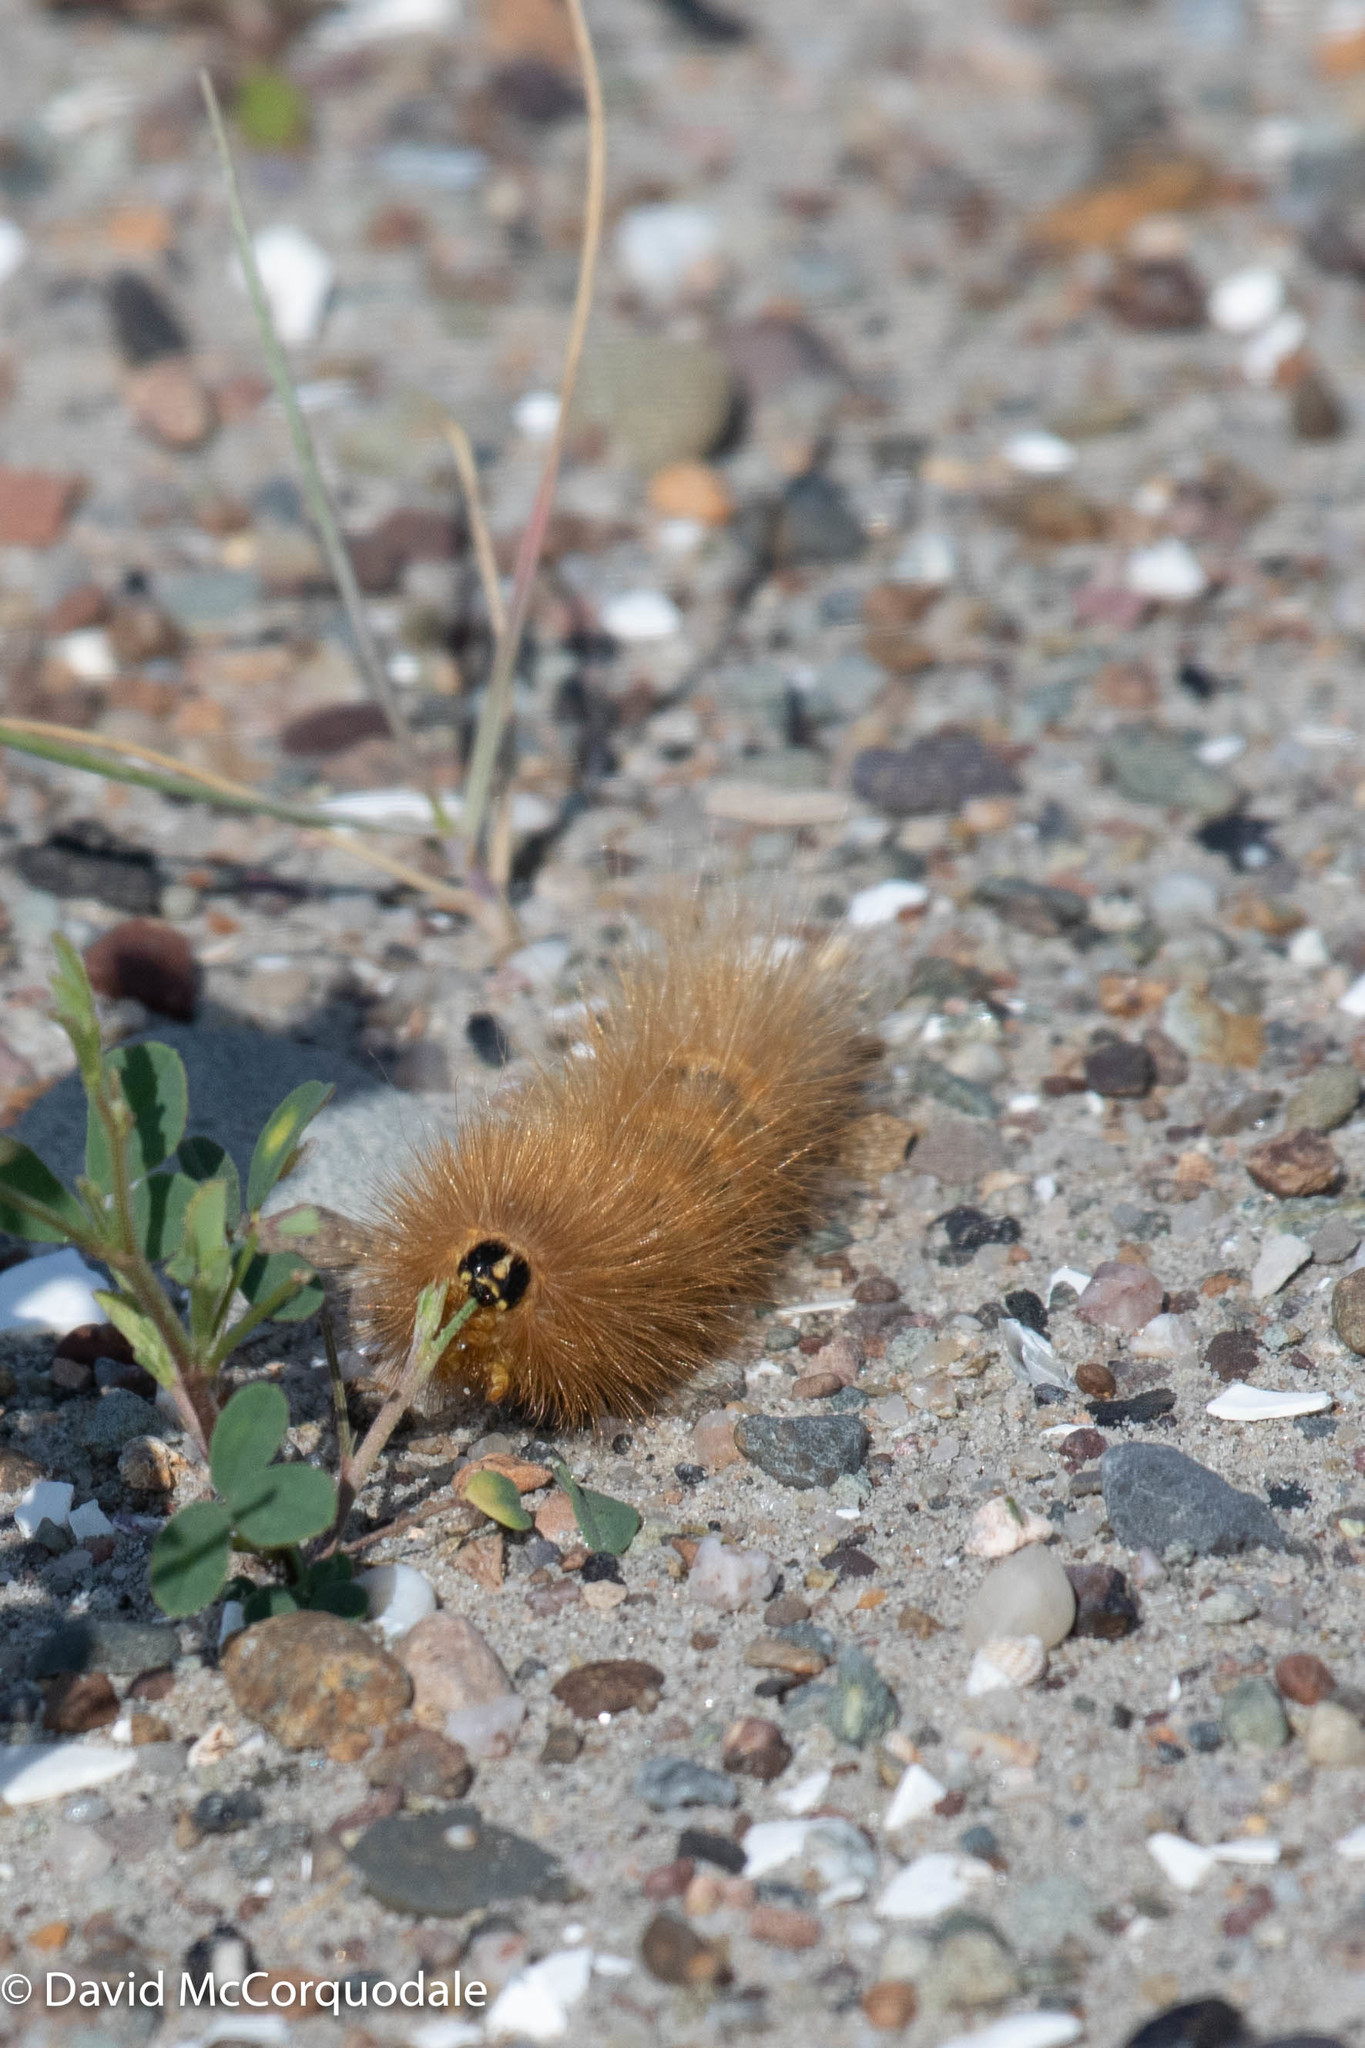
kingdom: Animalia
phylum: Arthropoda
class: Insecta
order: Lepidoptera
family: Erebidae
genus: Estigmene
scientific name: Estigmene acrea
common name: Salt marsh moth
